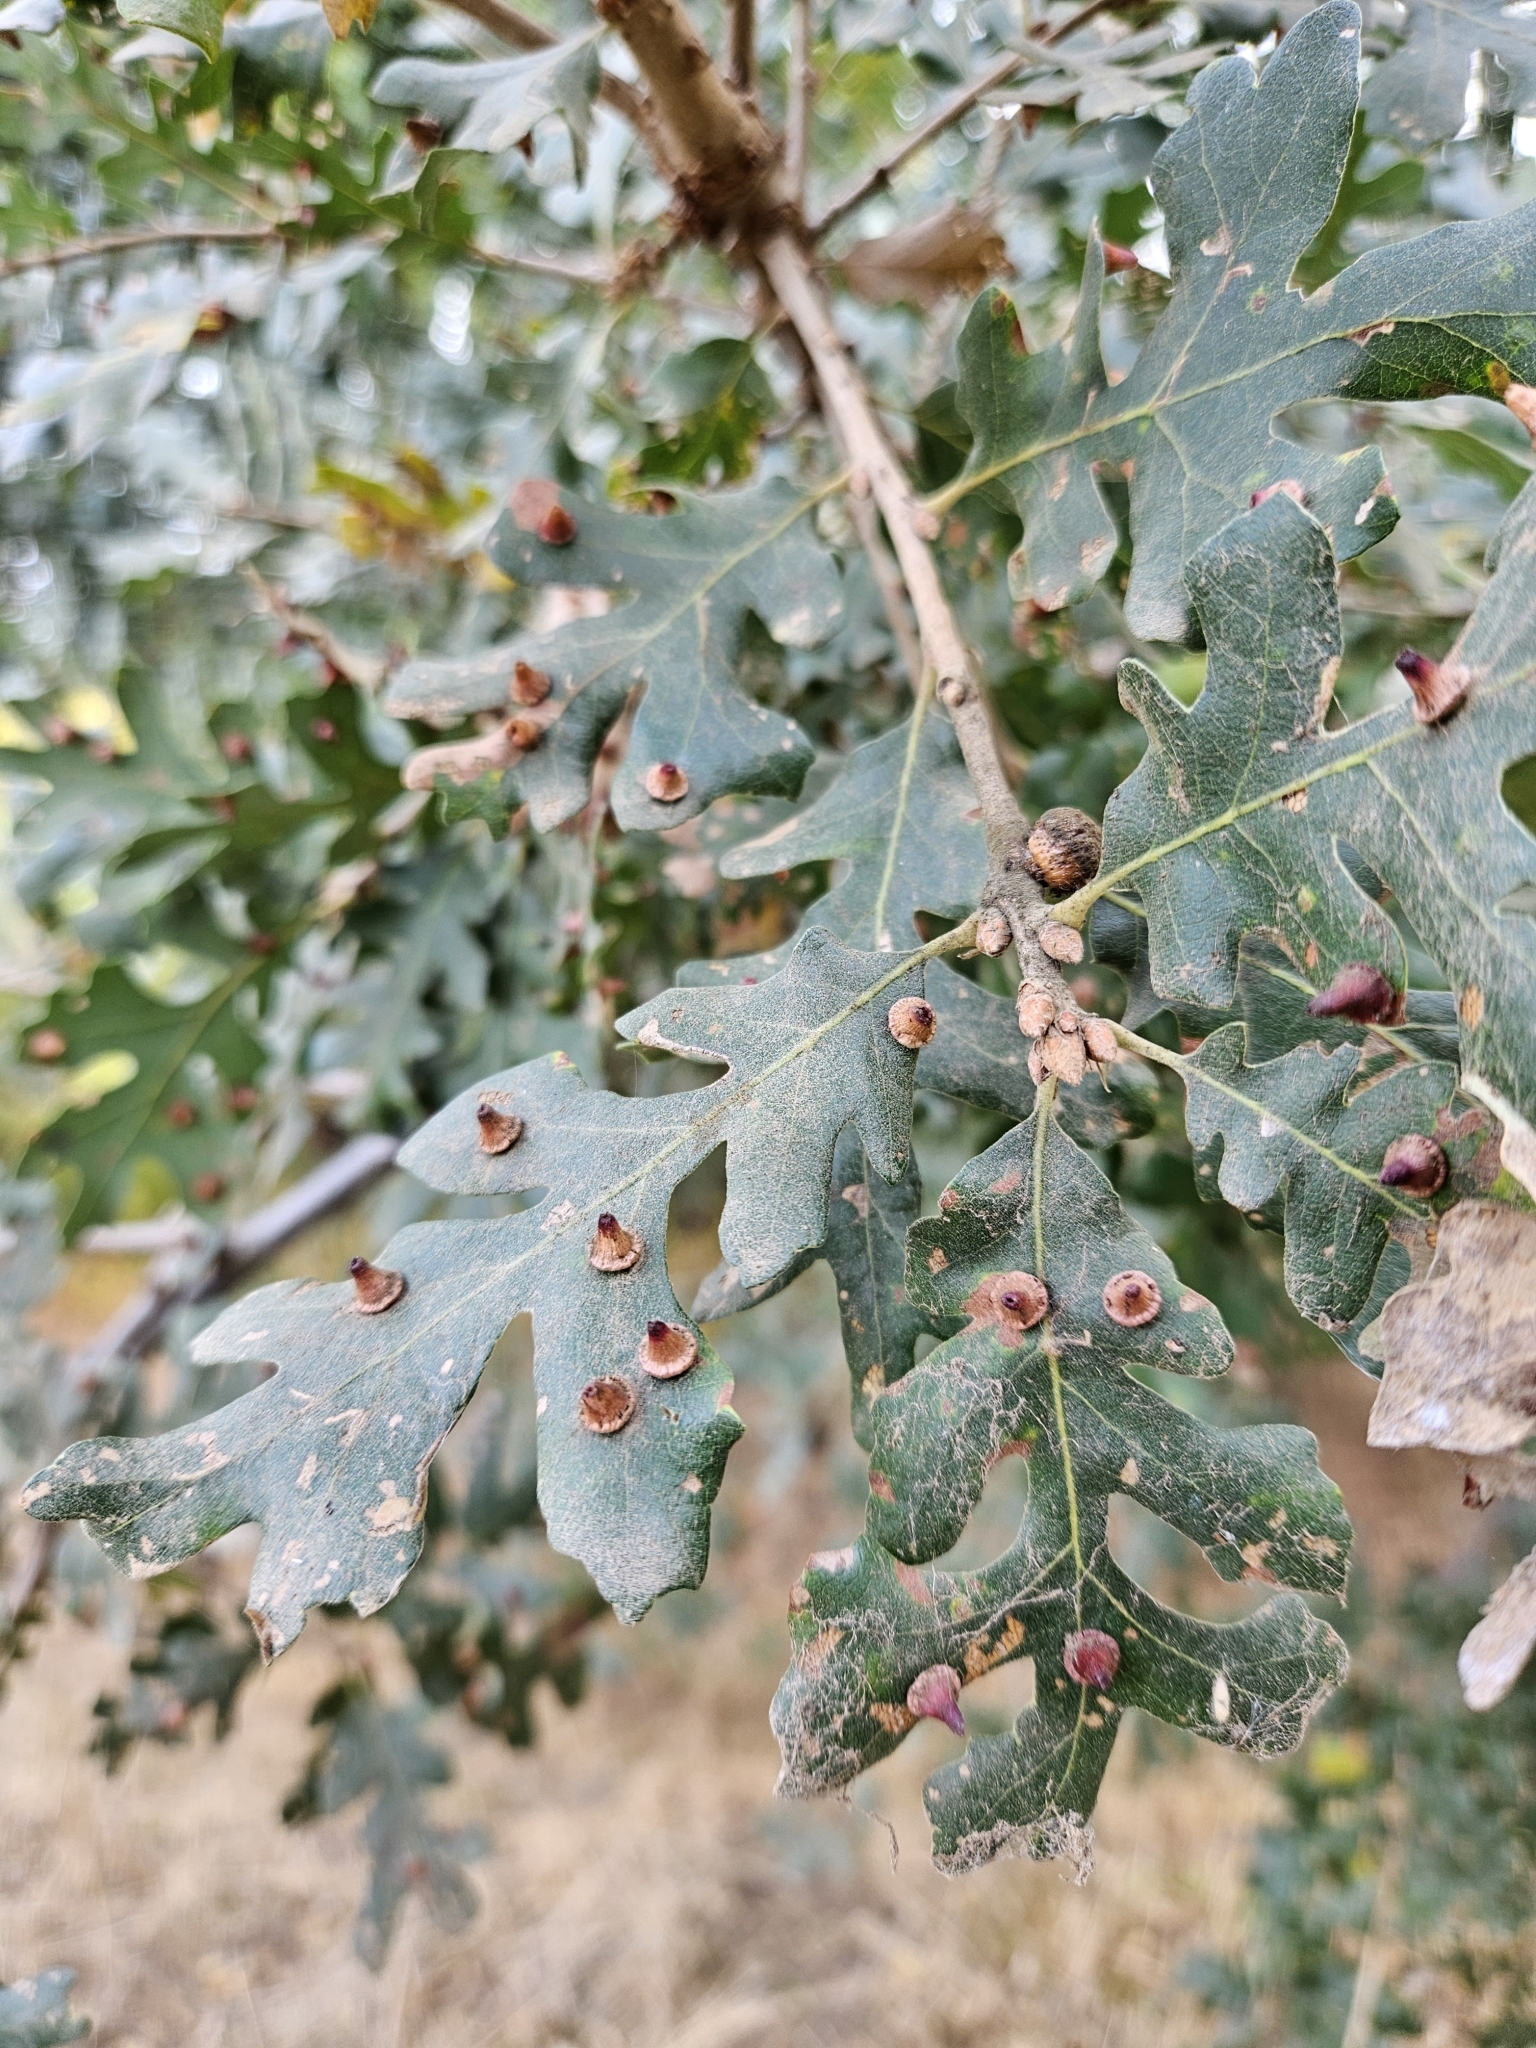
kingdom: Animalia
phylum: Arthropoda
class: Insecta
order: Hymenoptera
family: Cynipidae
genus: Andricus
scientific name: Andricus
